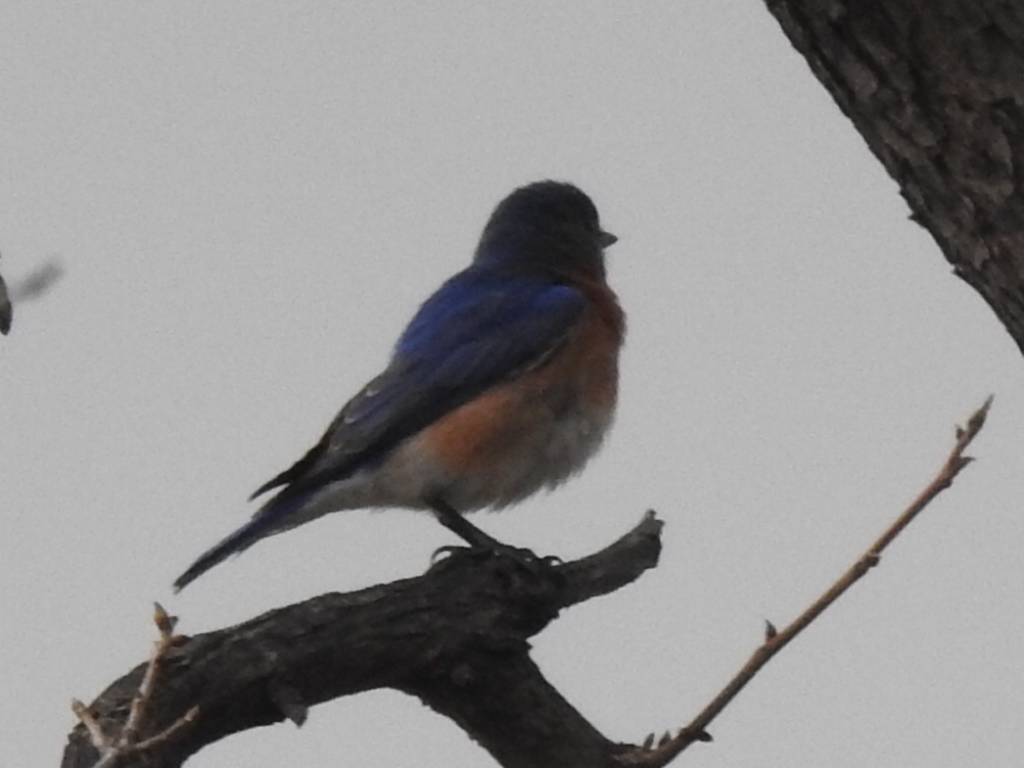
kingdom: Animalia
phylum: Chordata
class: Aves
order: Passeriformes
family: Turdidae
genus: Sialia
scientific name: Sialia sialis
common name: Eastern bluebird
